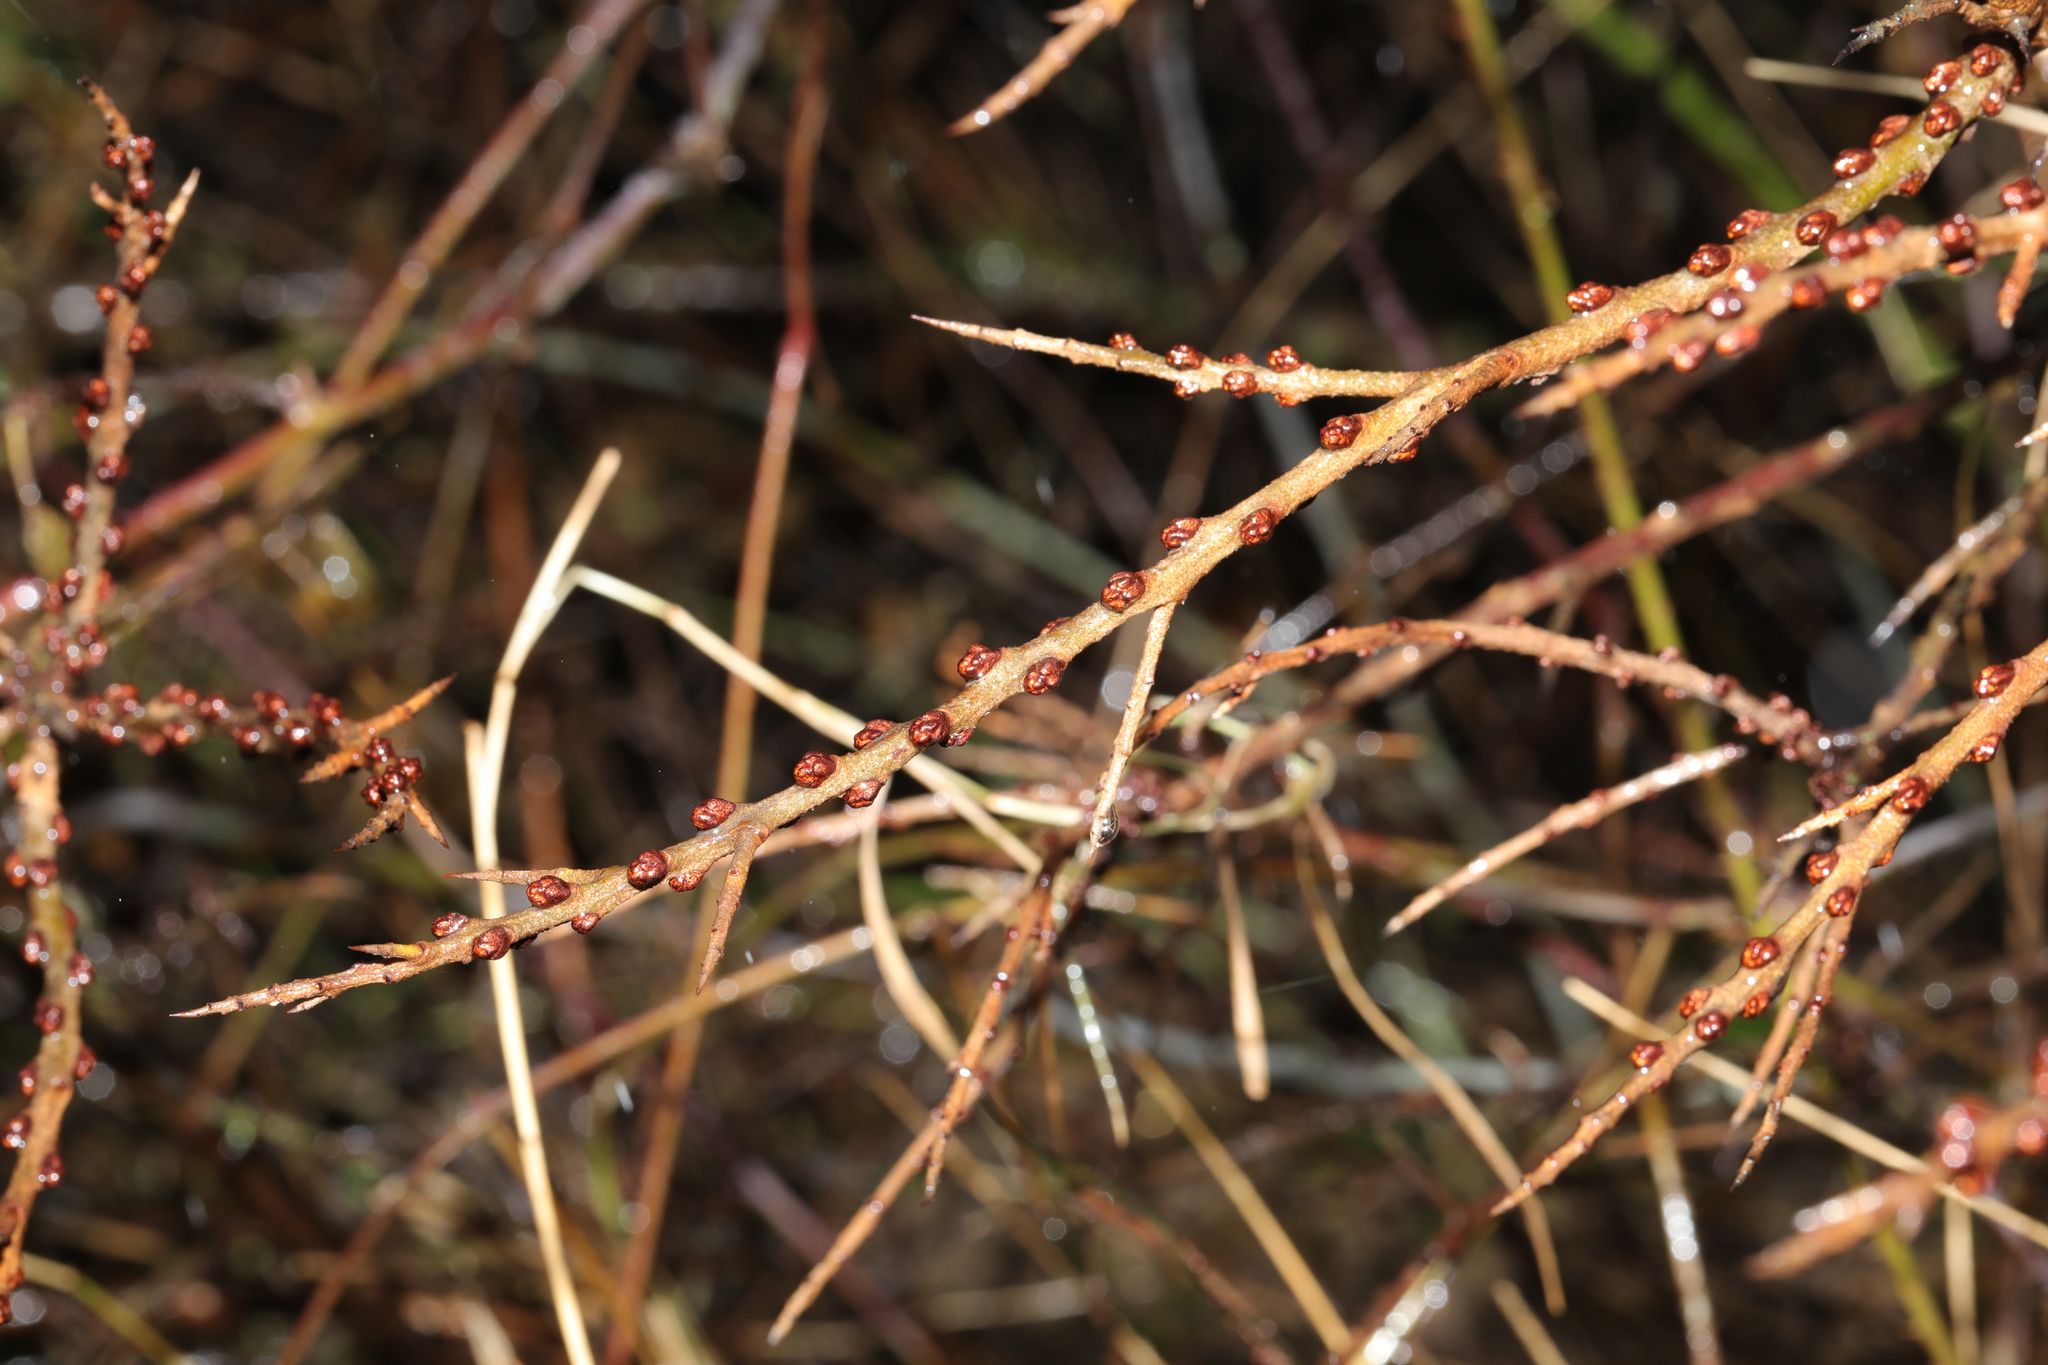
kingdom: Plantae
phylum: Tracheophyta
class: Magnoliopsida
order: Rosales
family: Elaeagnaceae
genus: Hippophae
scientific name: Hippophae rhamnoides
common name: Sea-buckthorn
